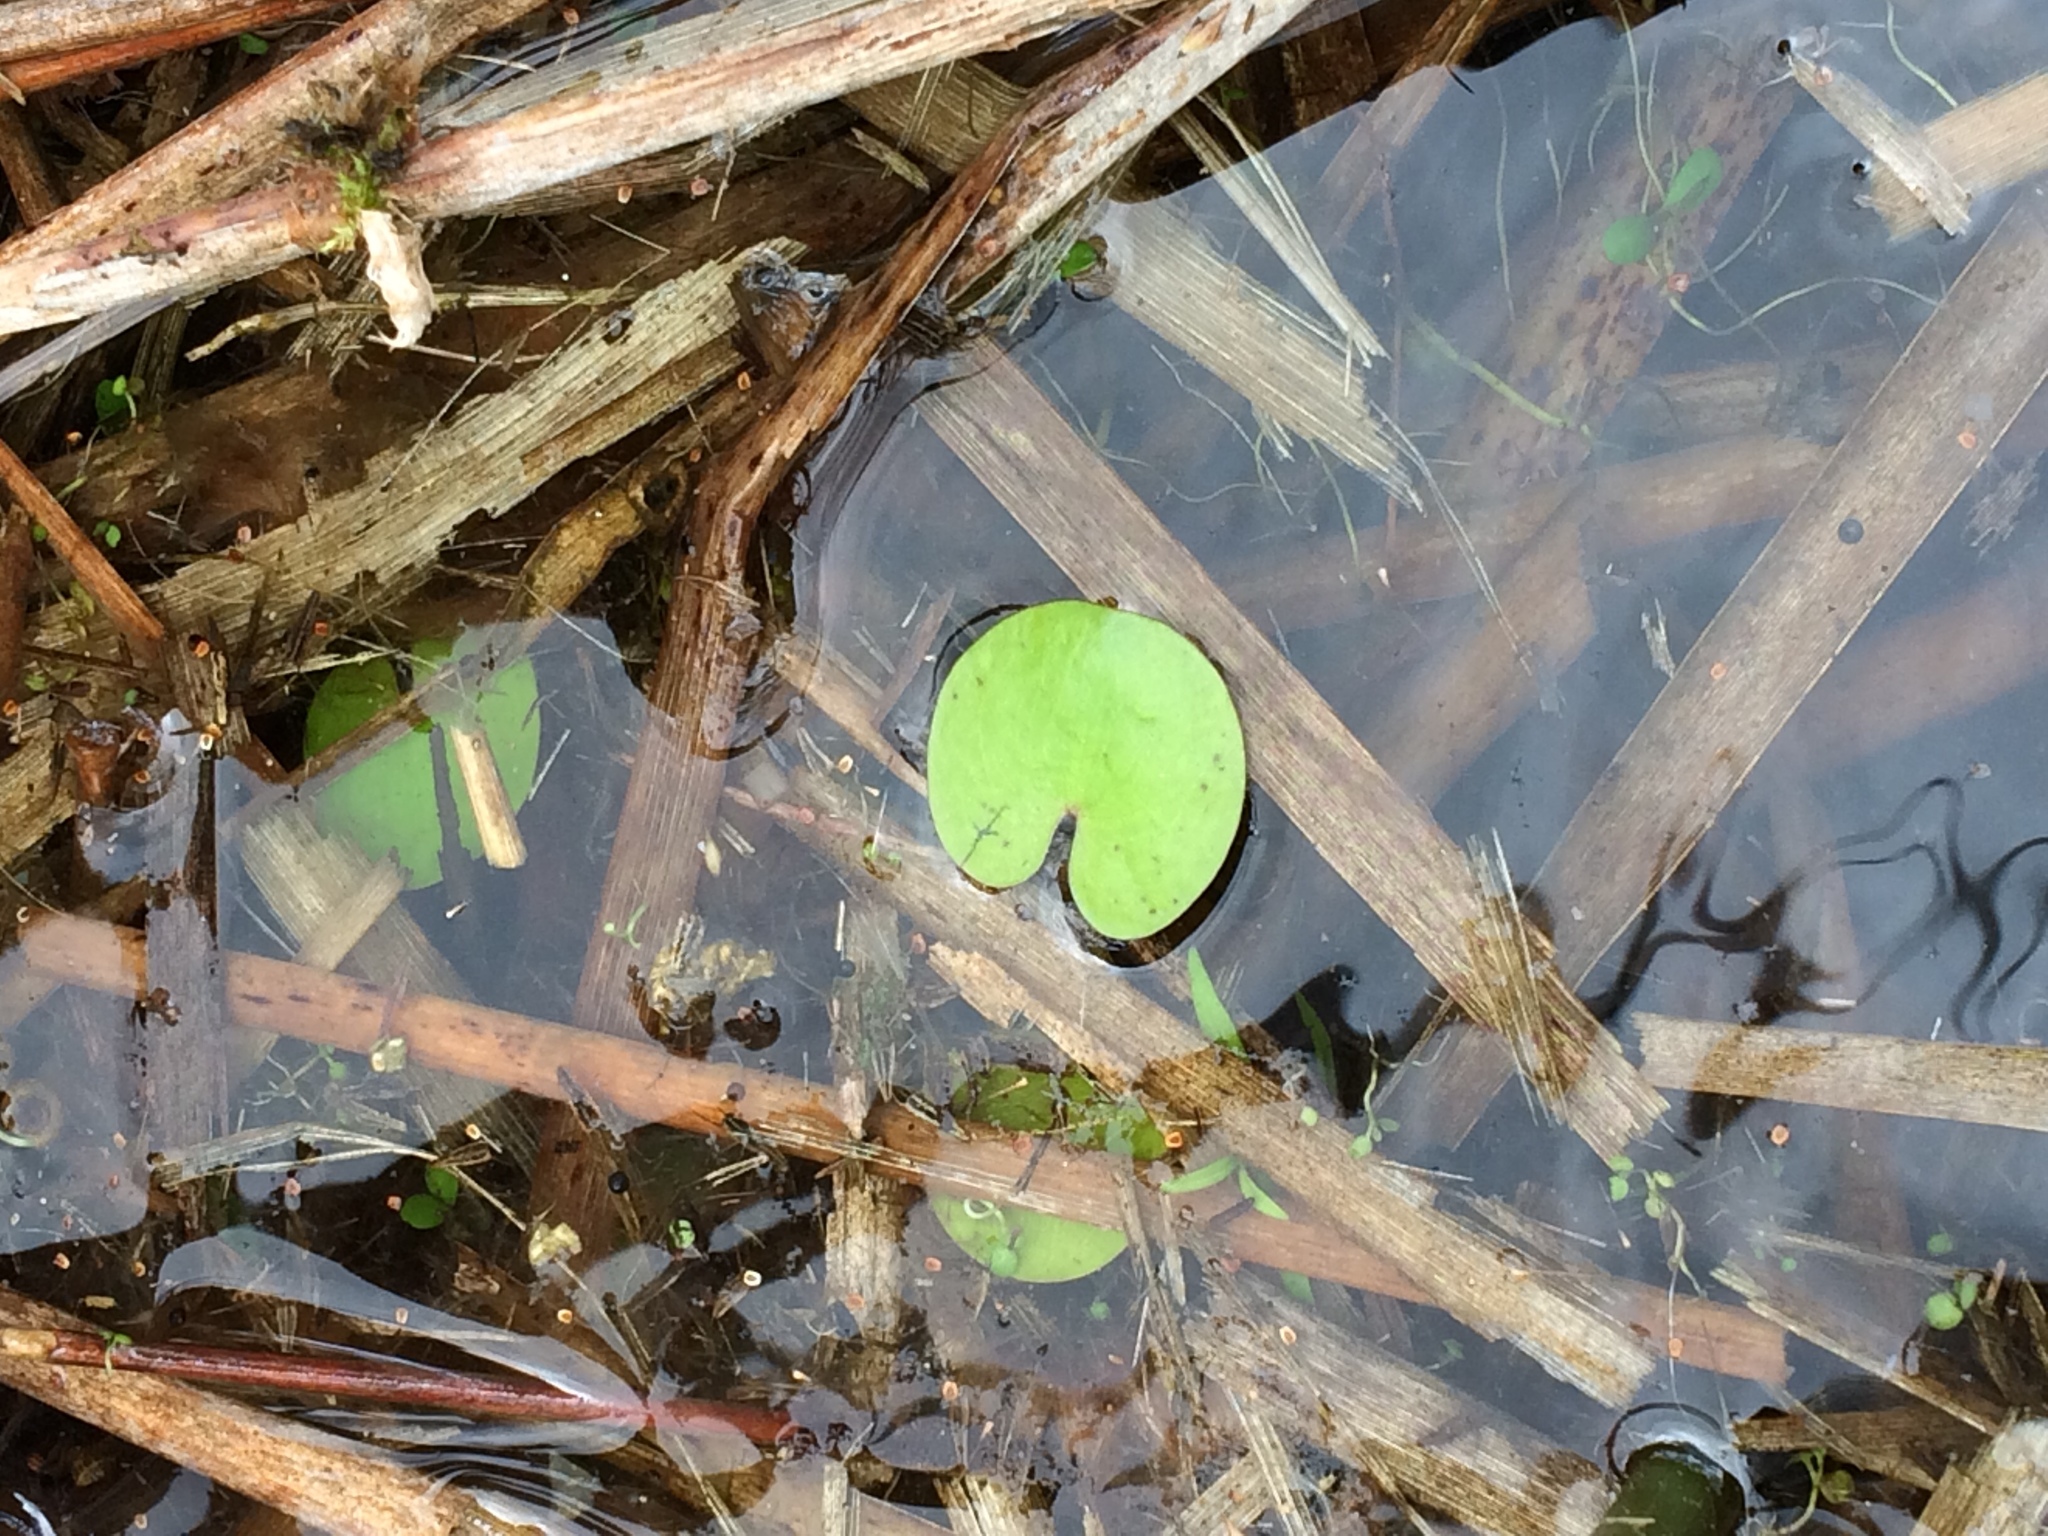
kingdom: Plantae
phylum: Tracheophyta
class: Liliopsida
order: Alismatales
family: Hydrocharitaceae
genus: Hydrocharis
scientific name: Hydrocharis morsus-ranae
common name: Frogbit
